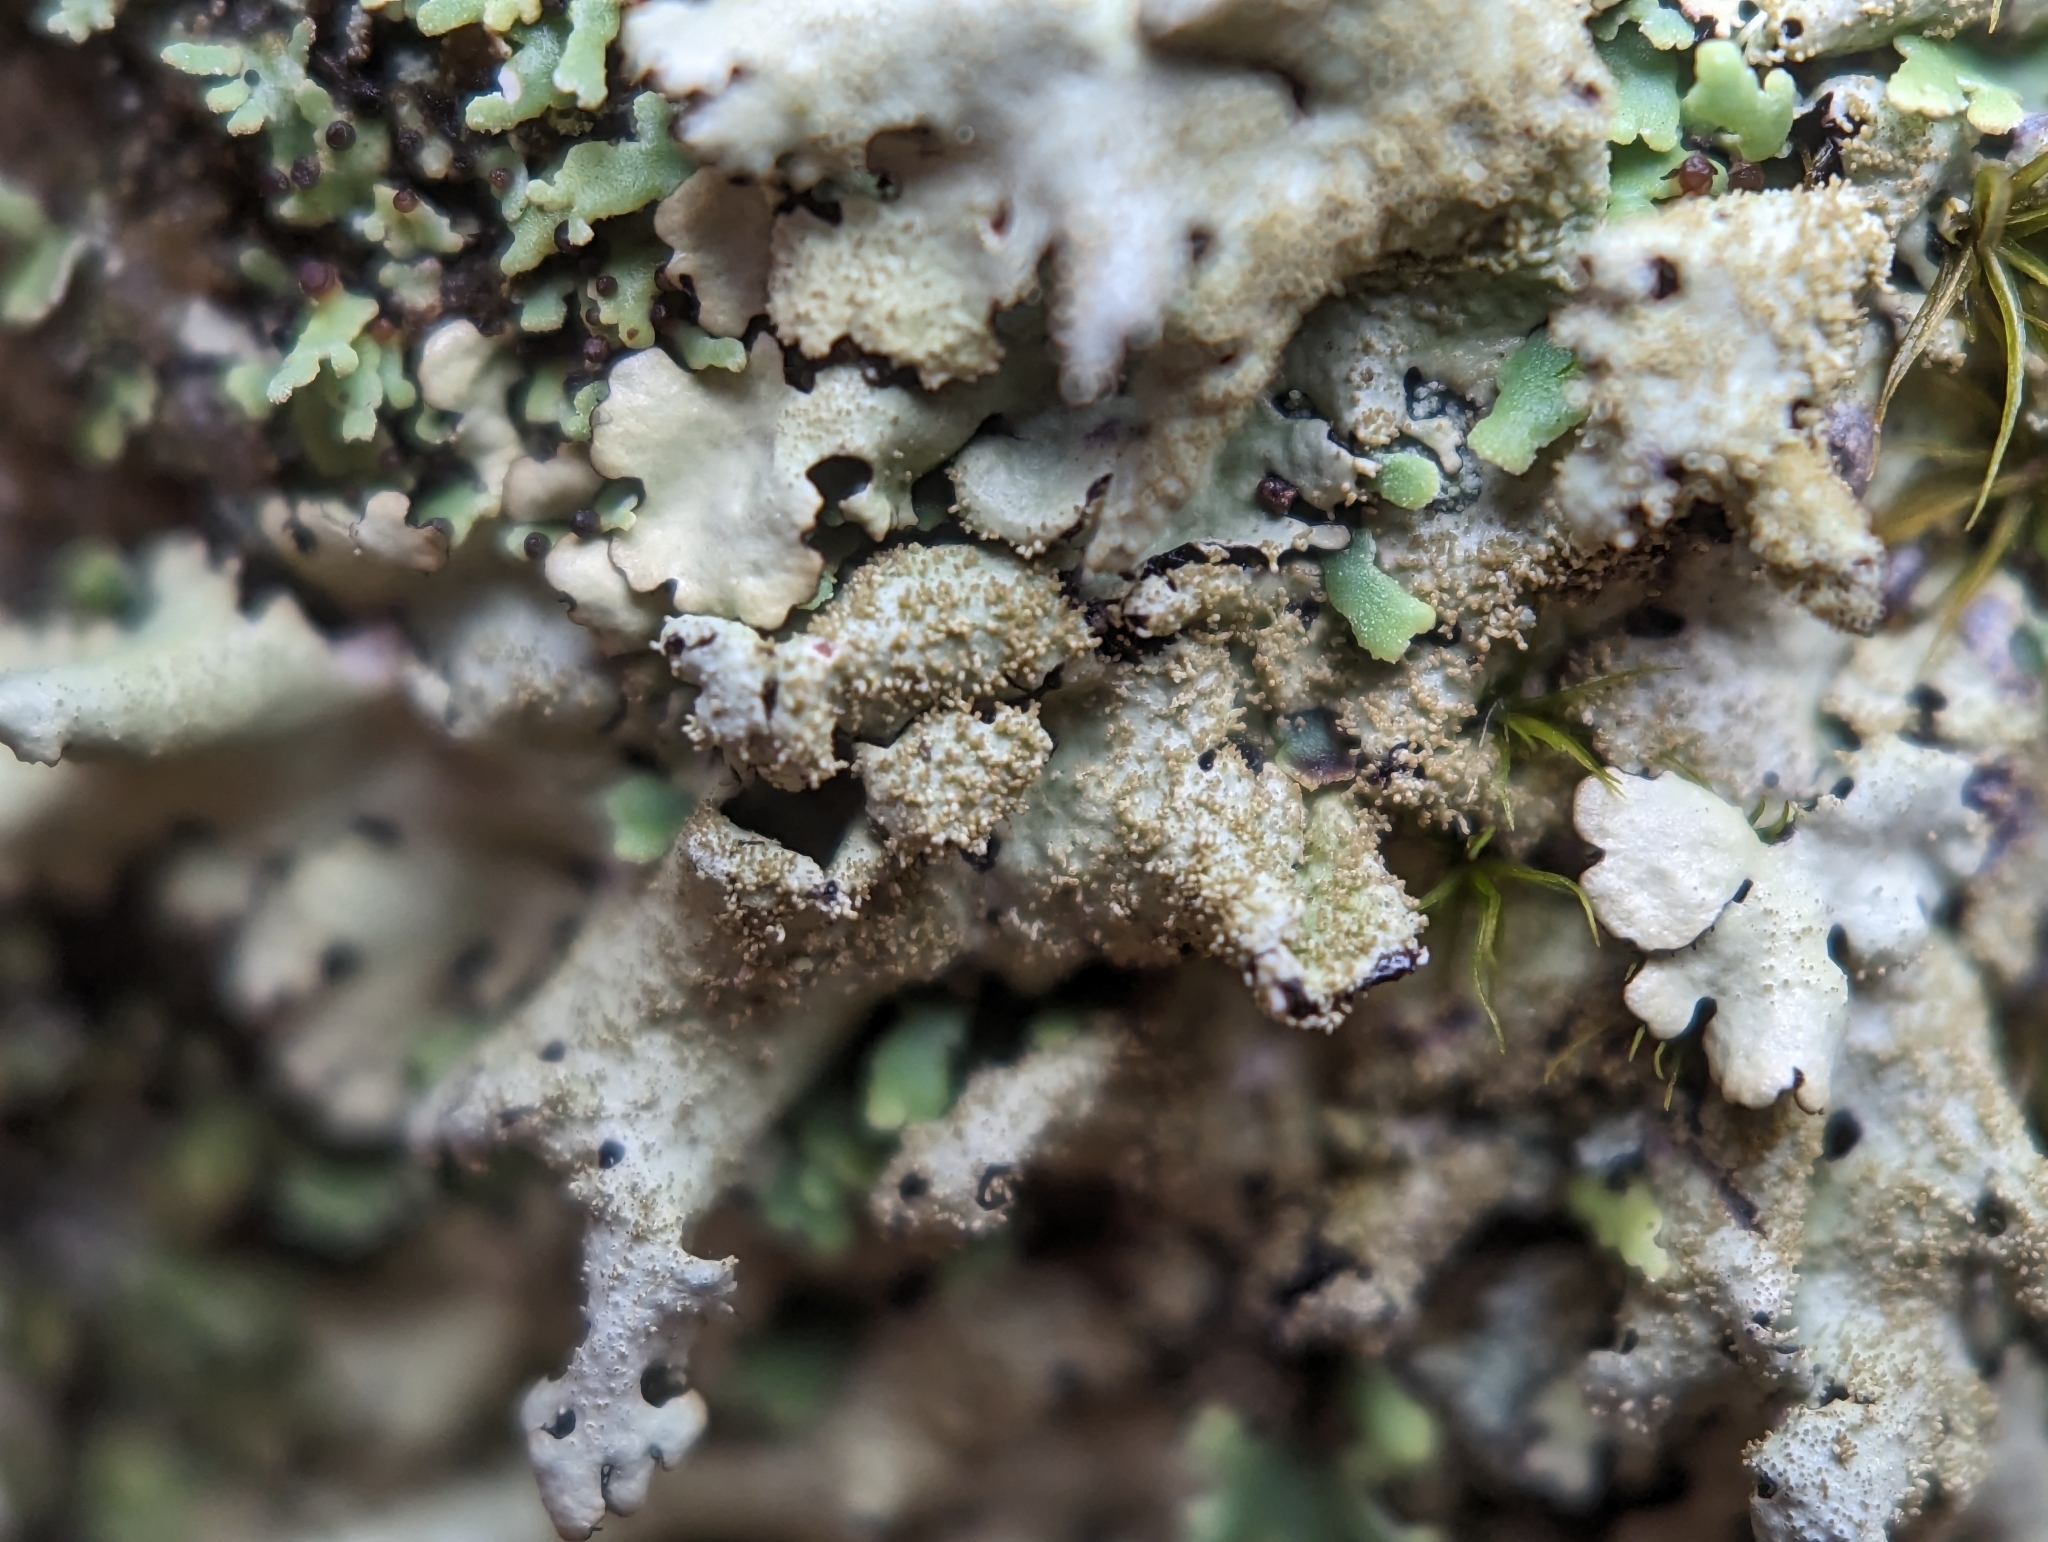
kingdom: Fungi
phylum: Ascomycota
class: Lecanoromycetes
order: Lecanorales
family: Parmeliaceae
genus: Hypotrachyna
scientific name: Hypotrachyna minarum
